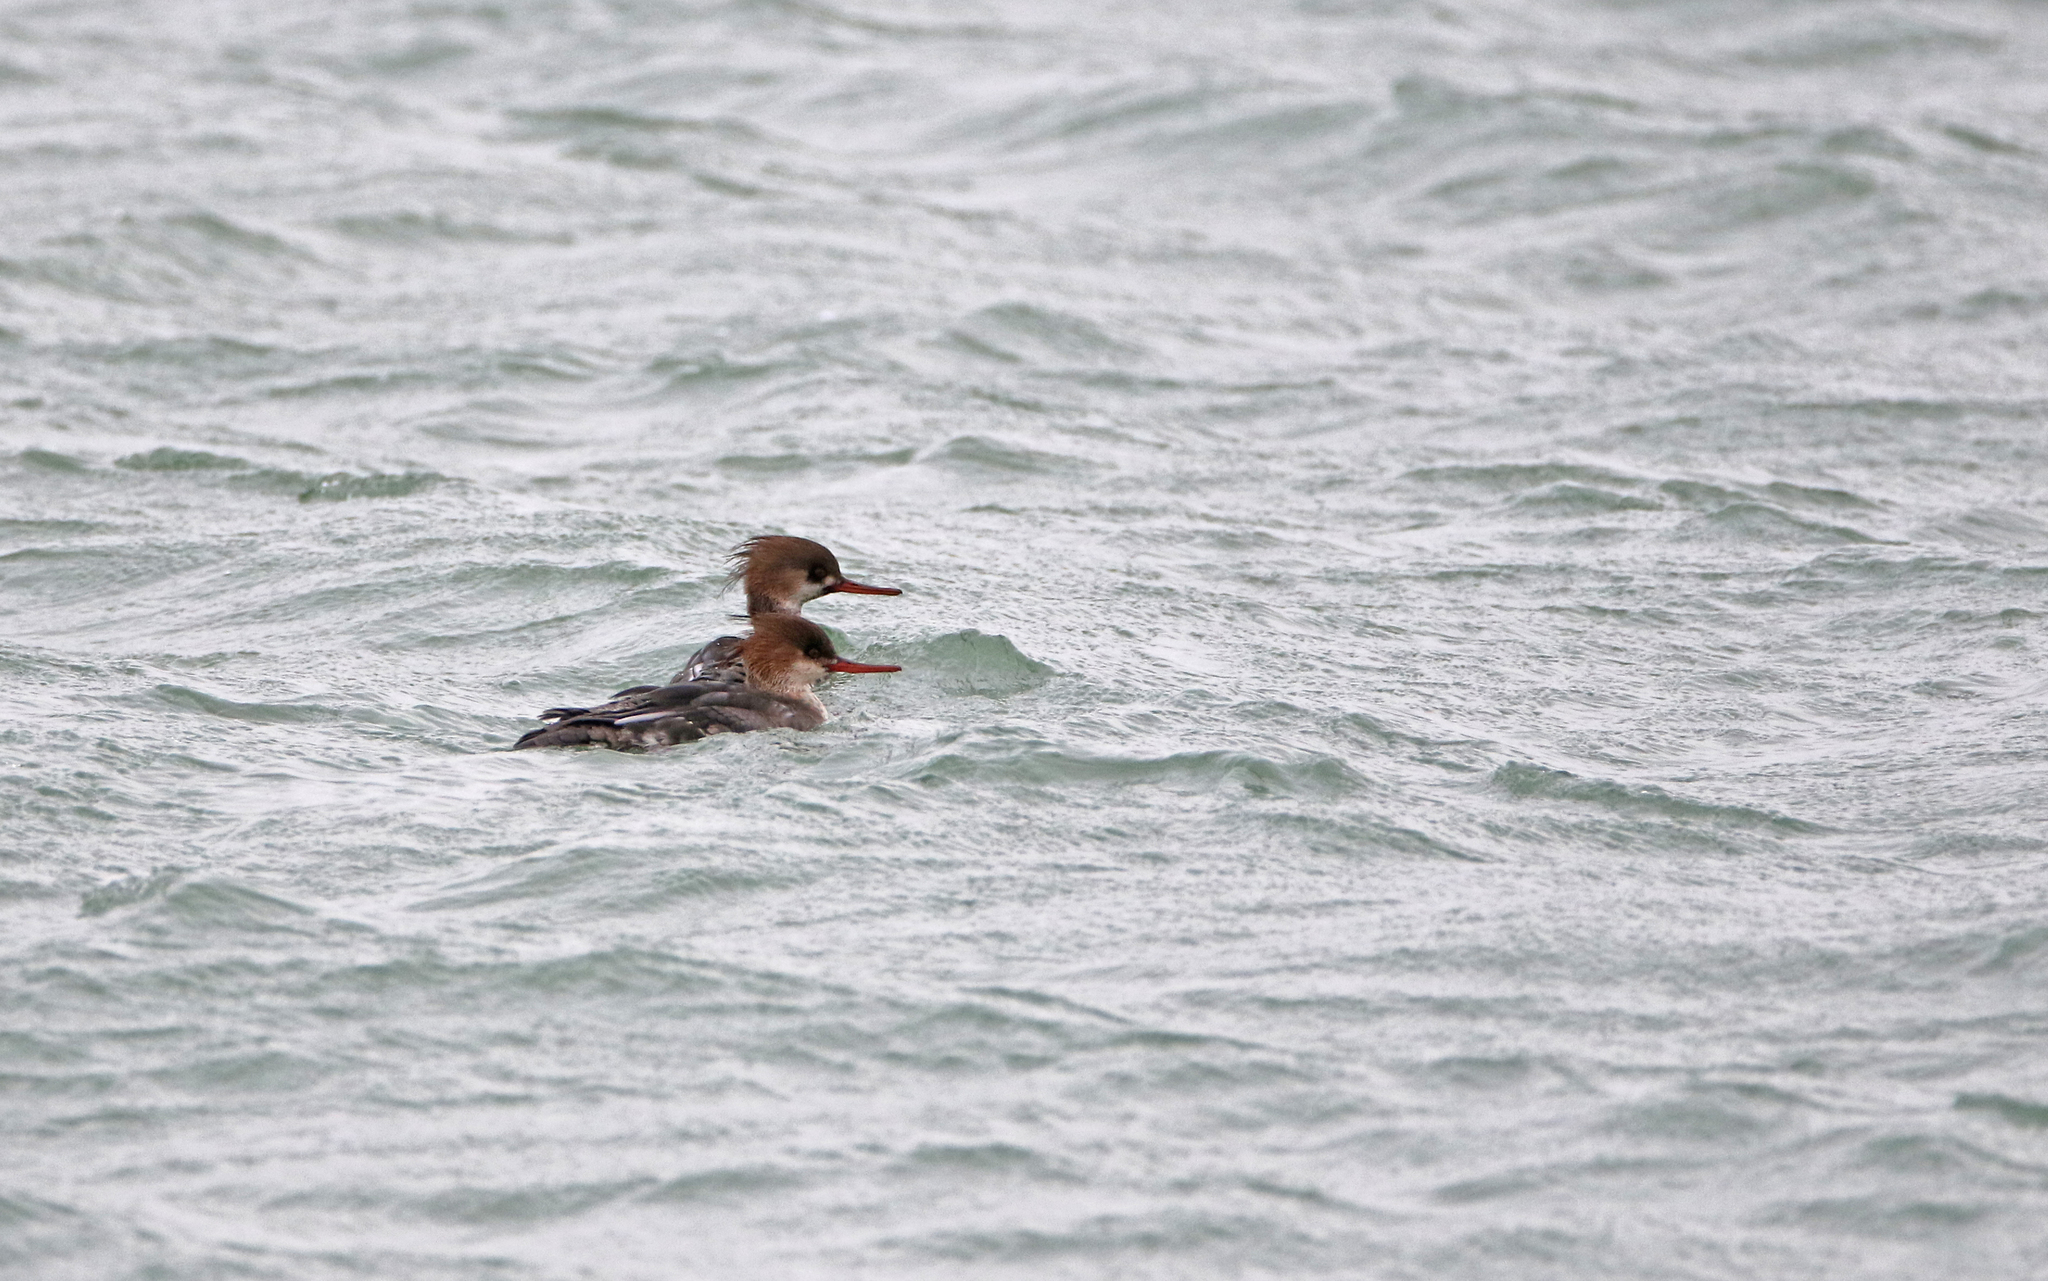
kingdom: Animalia
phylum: Chordata
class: Aves
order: Anseriformes
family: Anatidae
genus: Mergus
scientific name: Mergus serrator
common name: Red-breasted merganser
